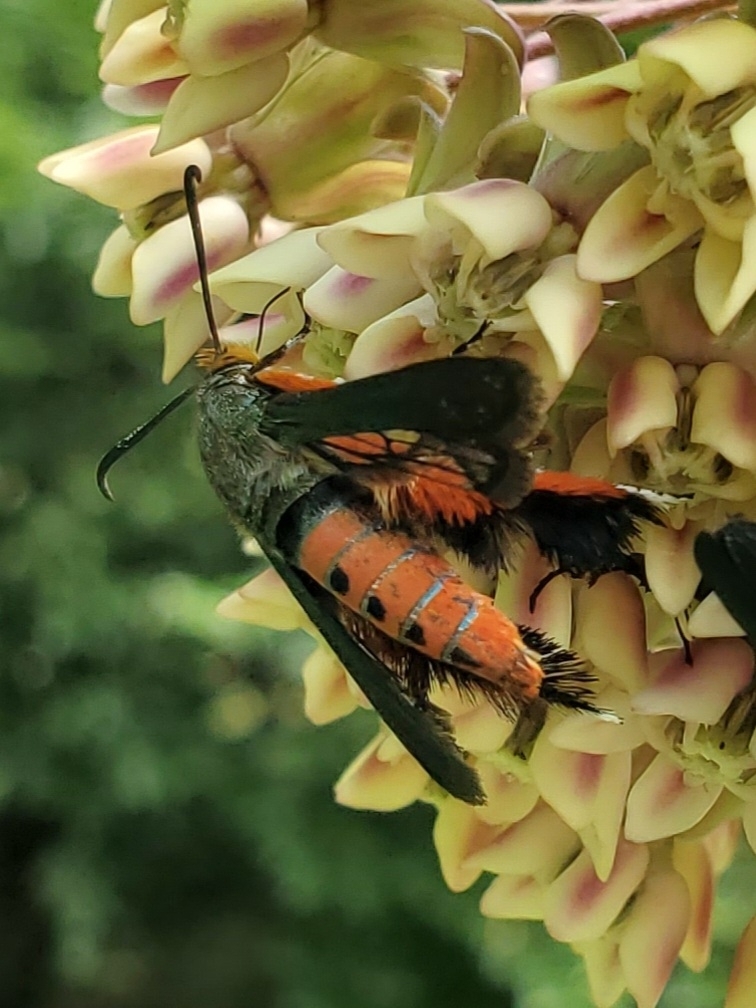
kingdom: Animalia
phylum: Arthropoda
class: Insecta
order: Lepidoptera
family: Sesiidae
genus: Eichlinia
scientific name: Eichlinia cucurbitae
